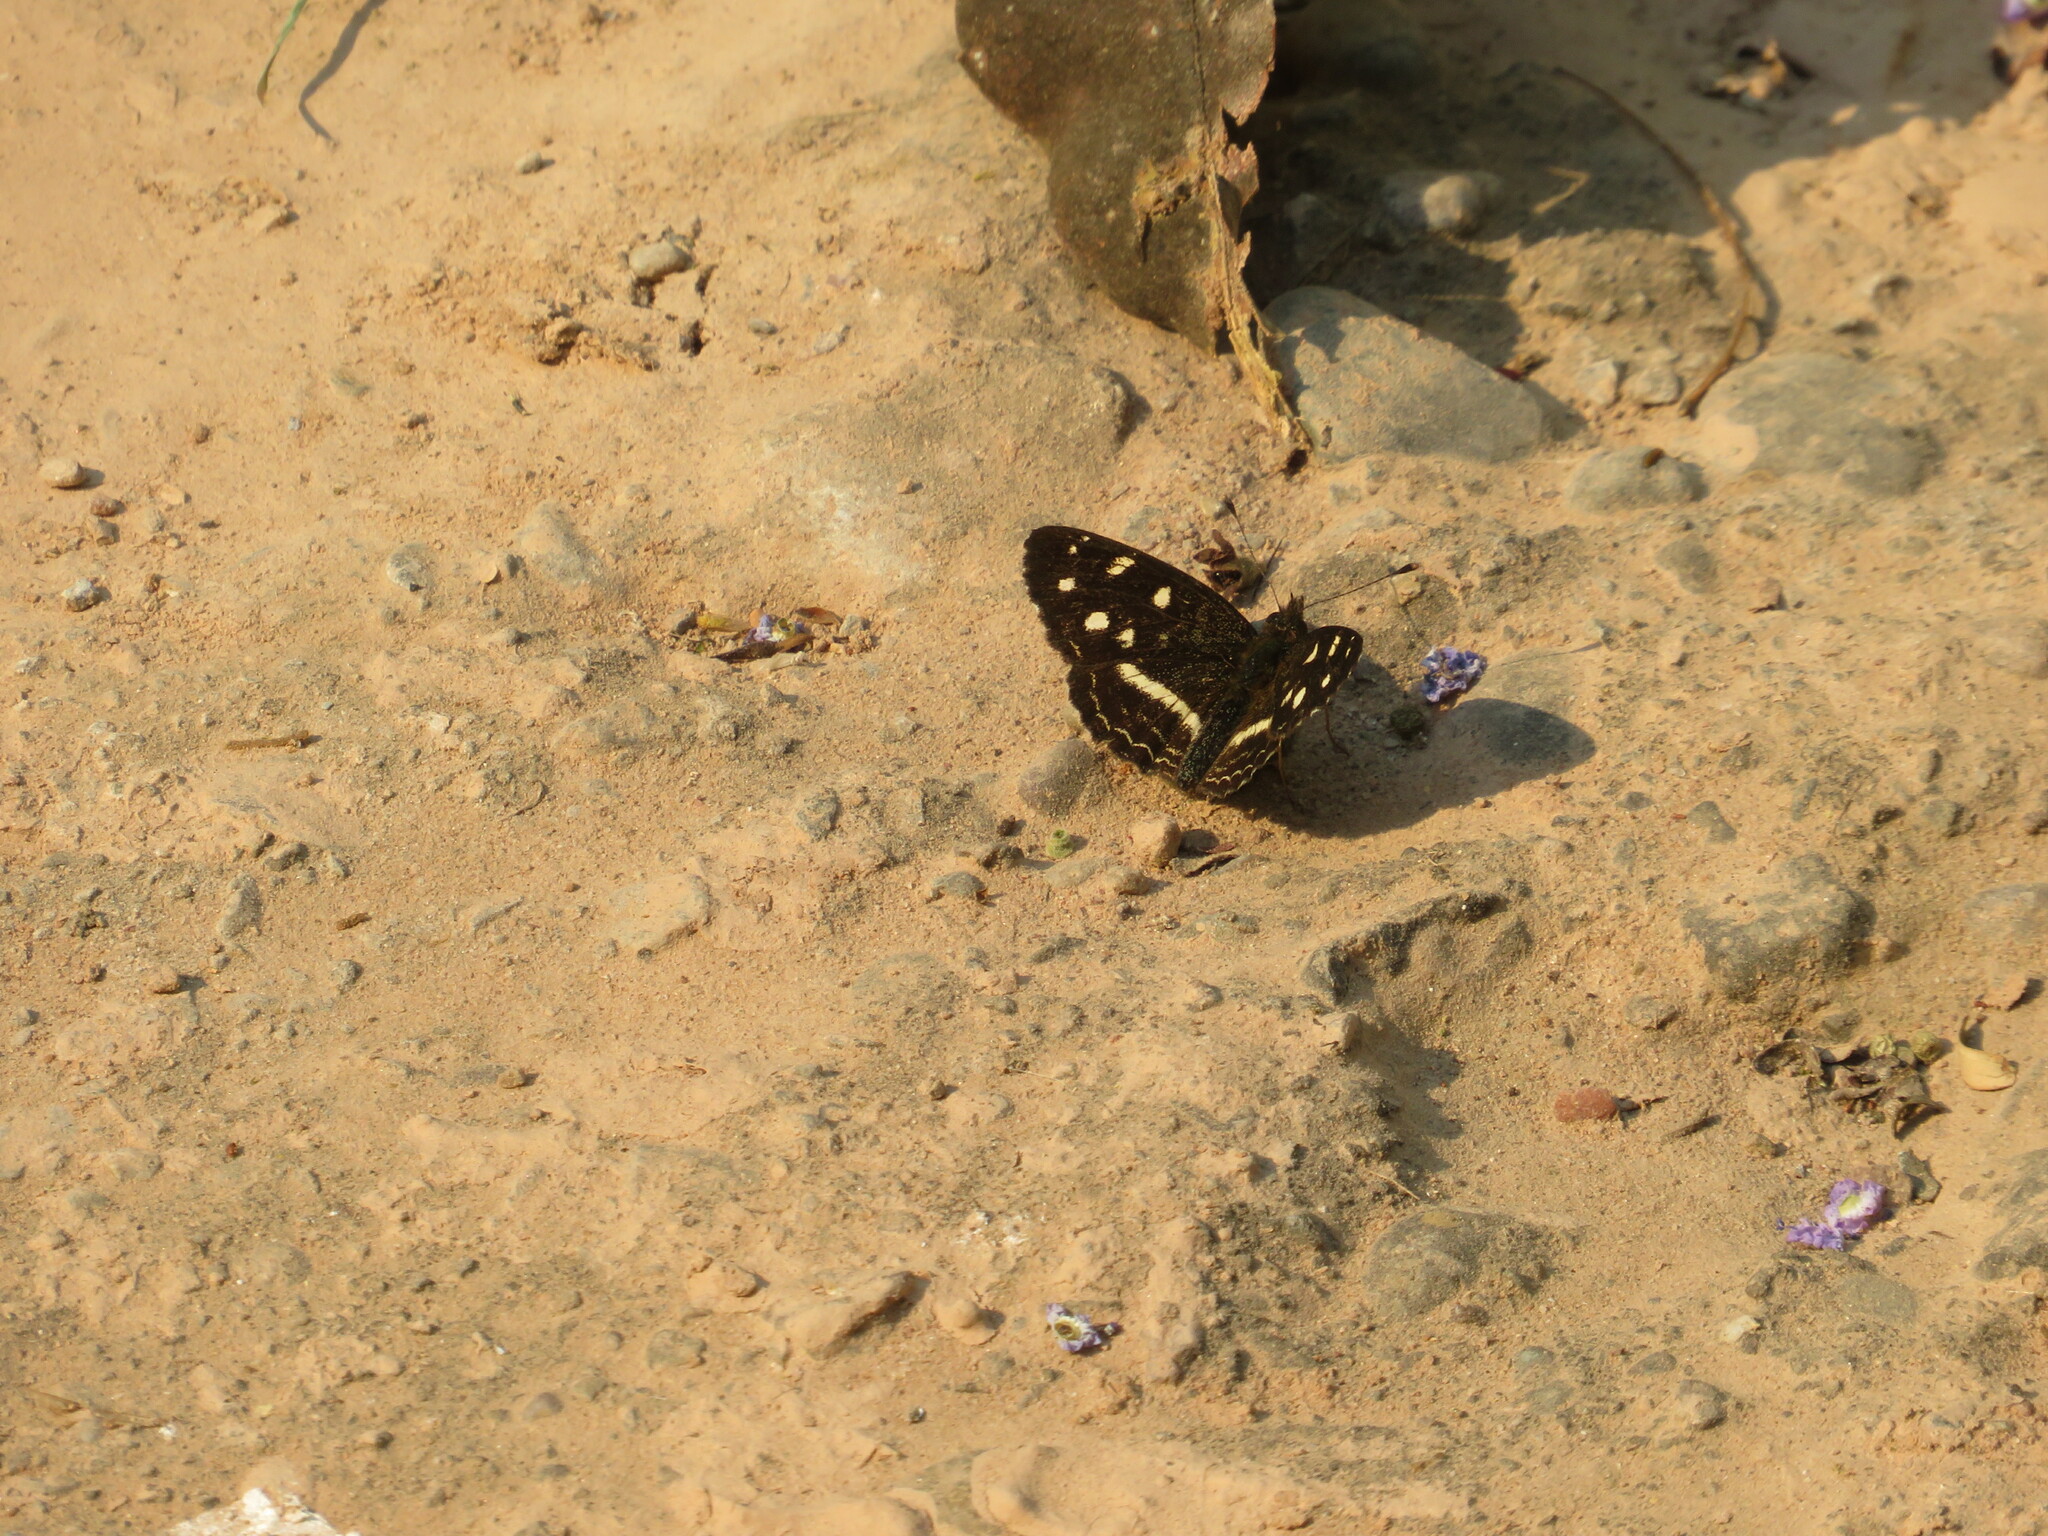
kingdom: Animalia
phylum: Arthropoda
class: Insecta
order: Lepidoptera
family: Nymphalidae
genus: Ortilia
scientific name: Ortilia ithra
